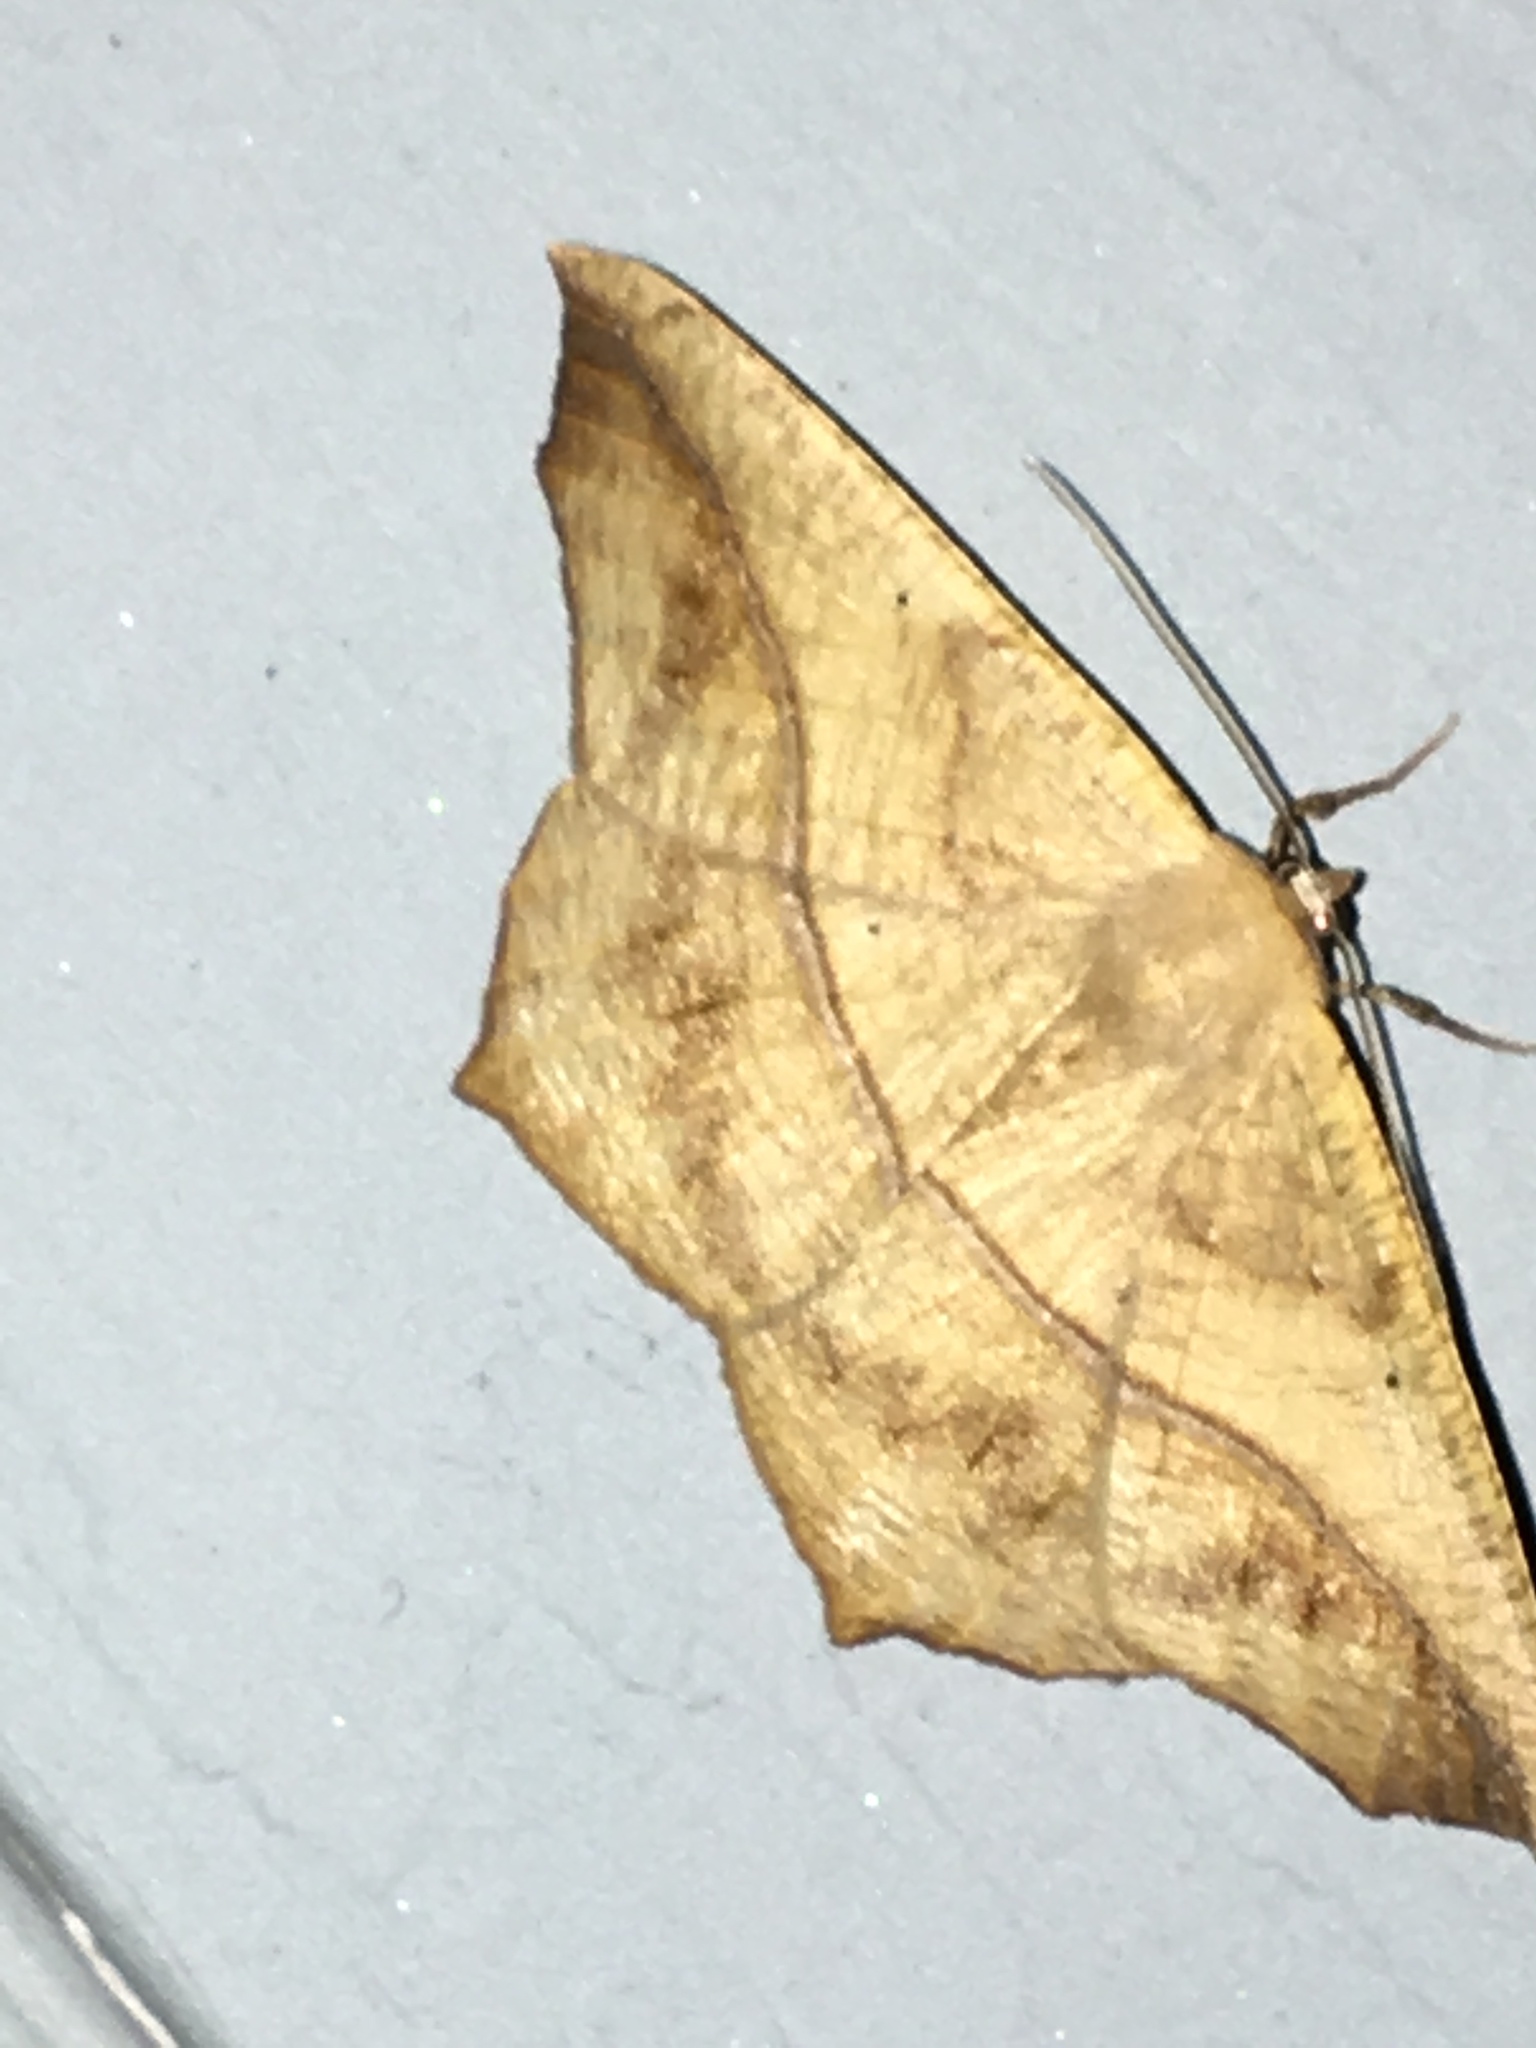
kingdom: Animalia
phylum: Arthropoda
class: Insecta
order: Lepidoptera
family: Geometridae
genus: Prochoerodes
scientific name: Prochoerodes lineola
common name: Large maple spanworm
